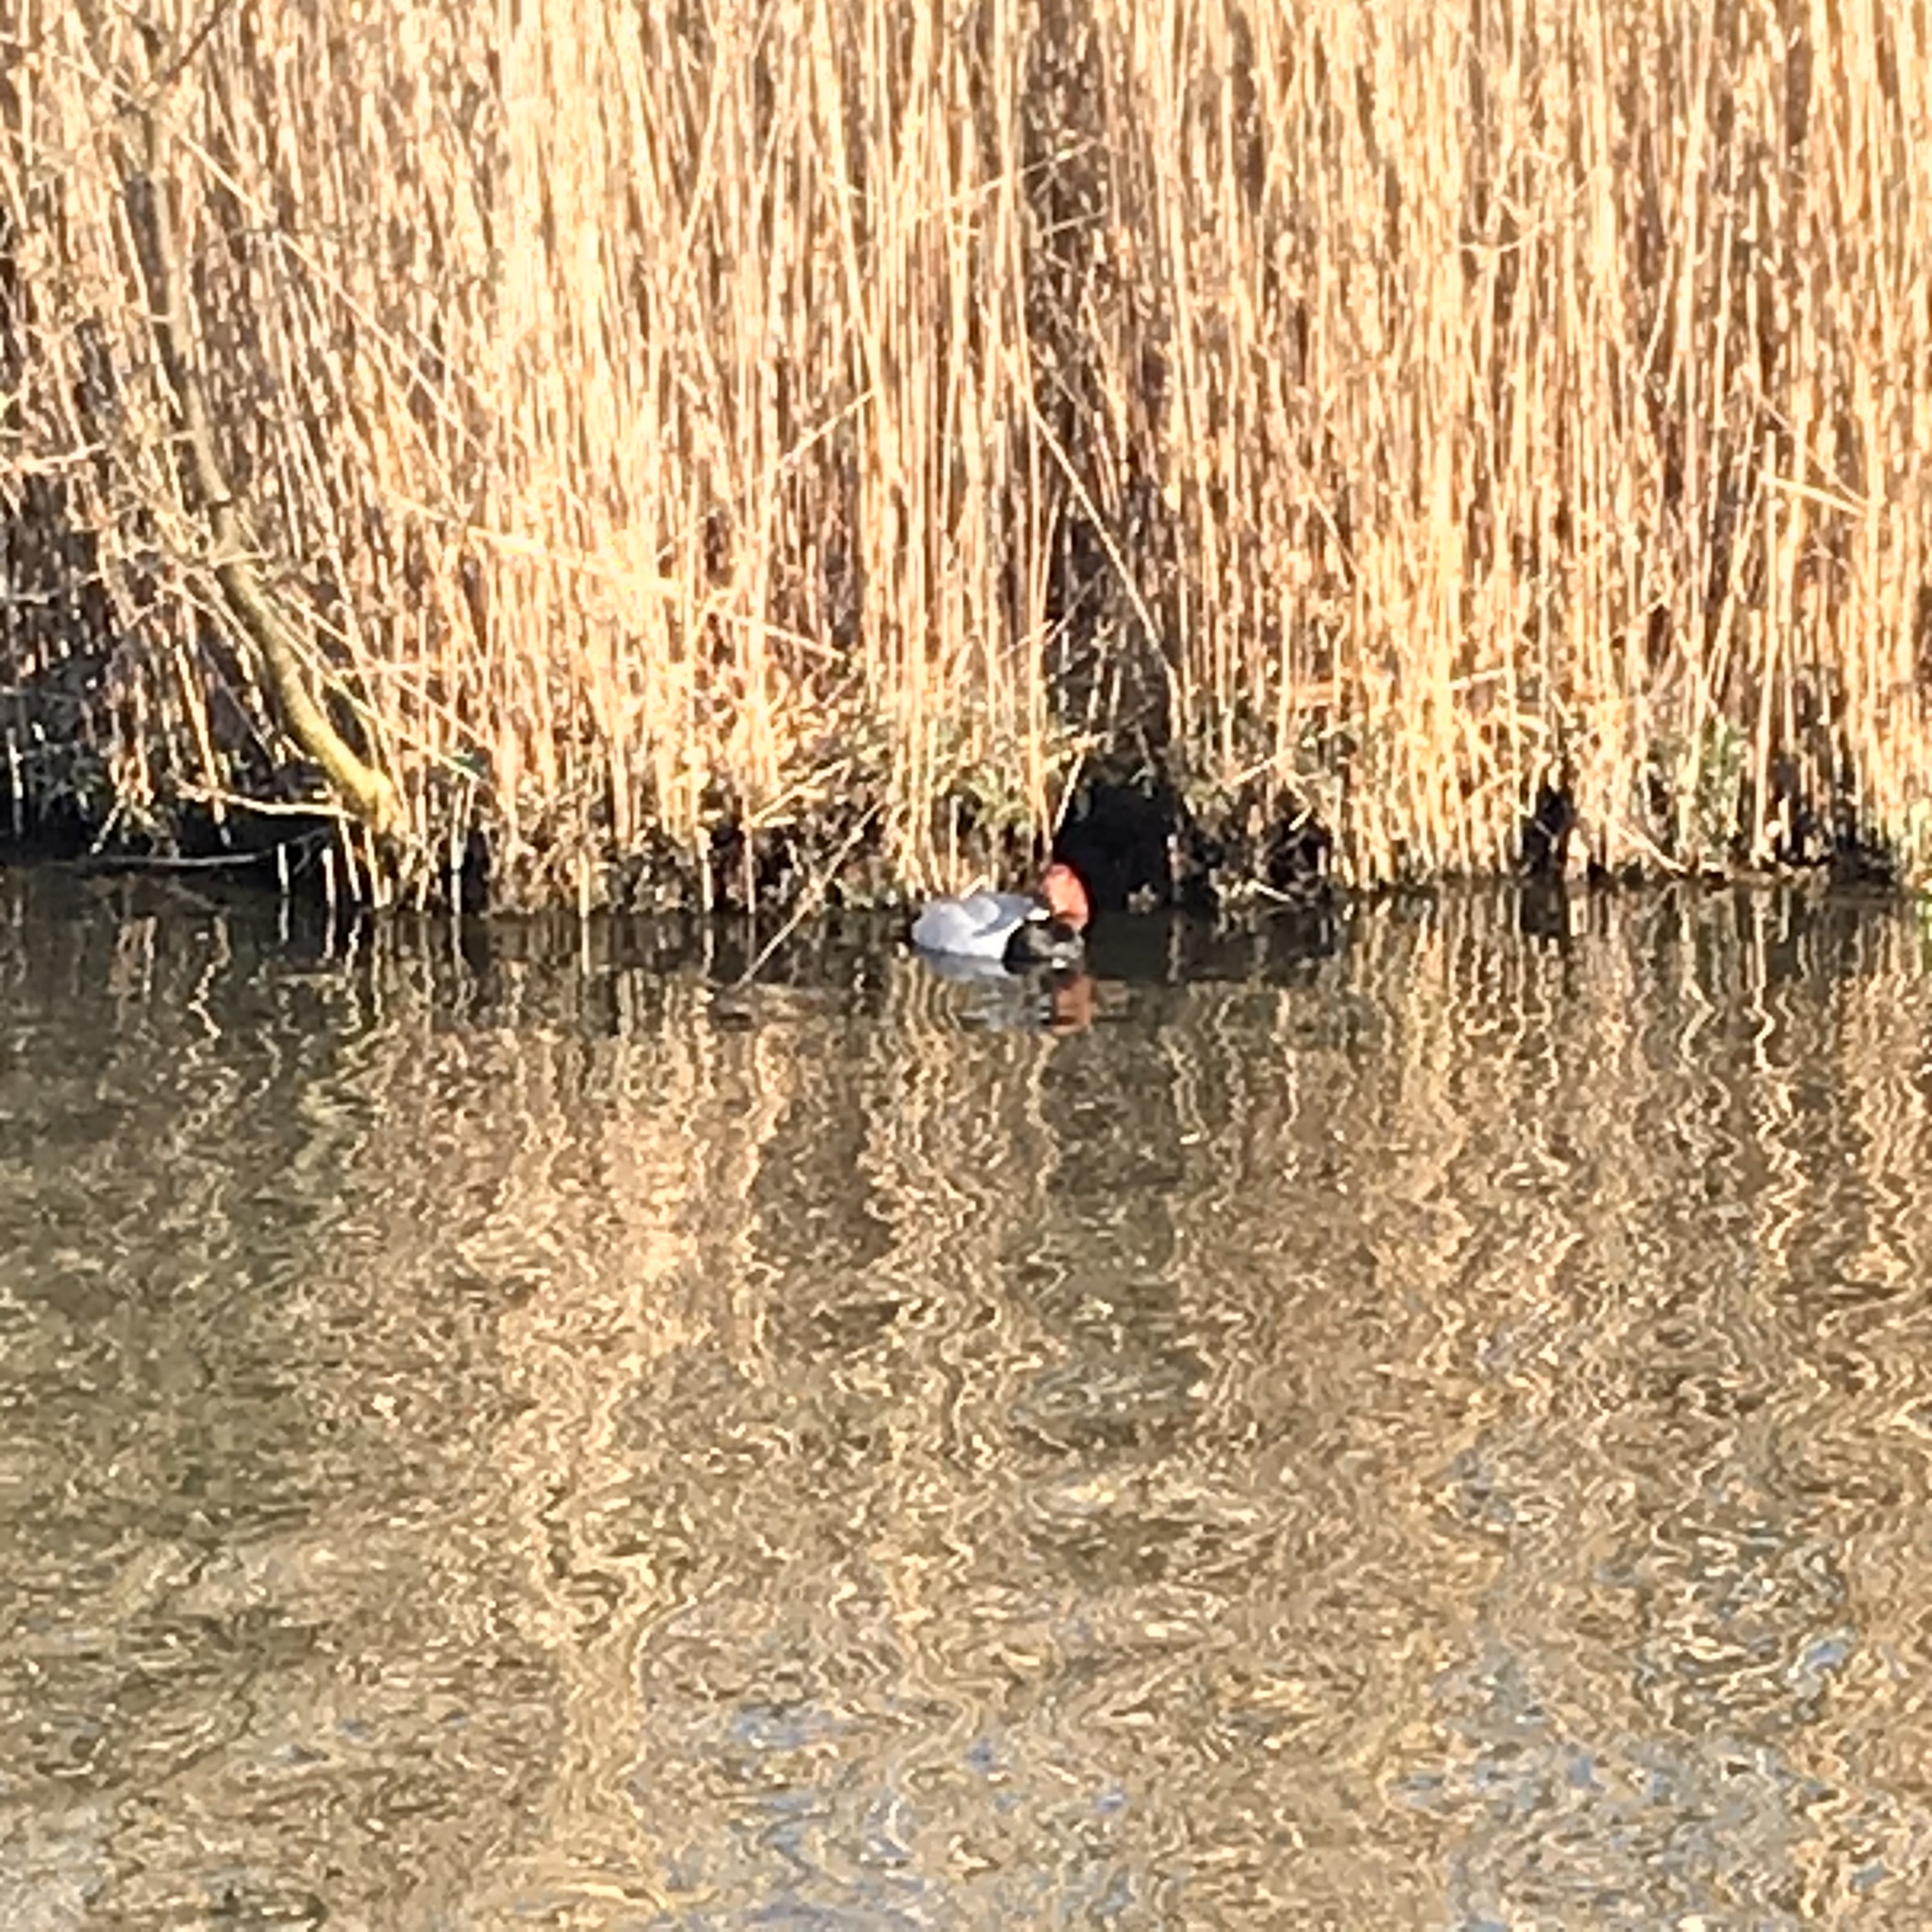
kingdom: Animalia
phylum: Chordata
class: Aves
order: Anseriformes
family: Anatidae
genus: Aythya
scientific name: Aythya ferina
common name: Common pochard
